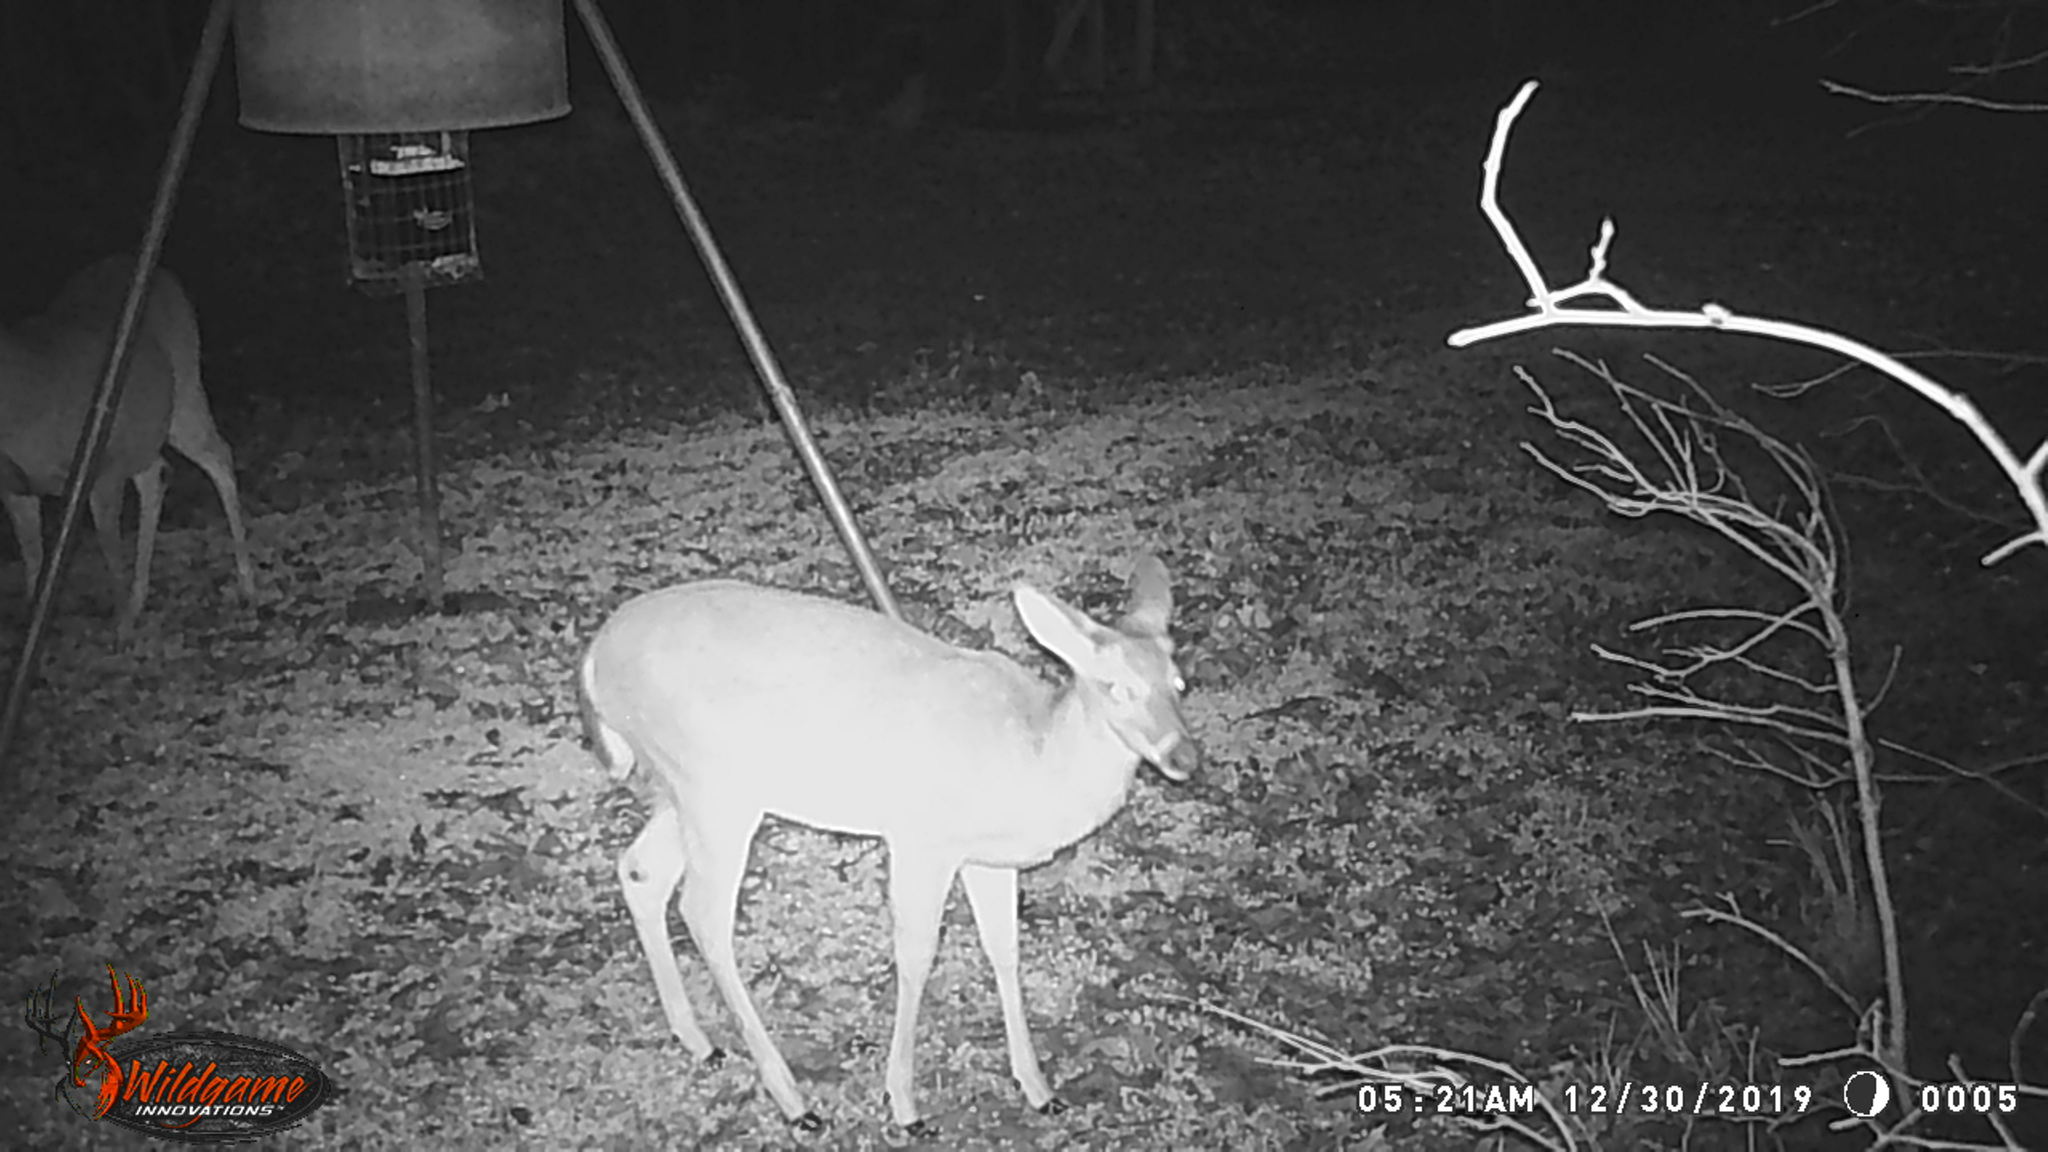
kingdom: Animalia
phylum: Chordata
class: Mammalia
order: Artiodactyla
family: Cervidae
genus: Odocoileus
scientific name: Odocoileus virginianus
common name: White-tailed deer
